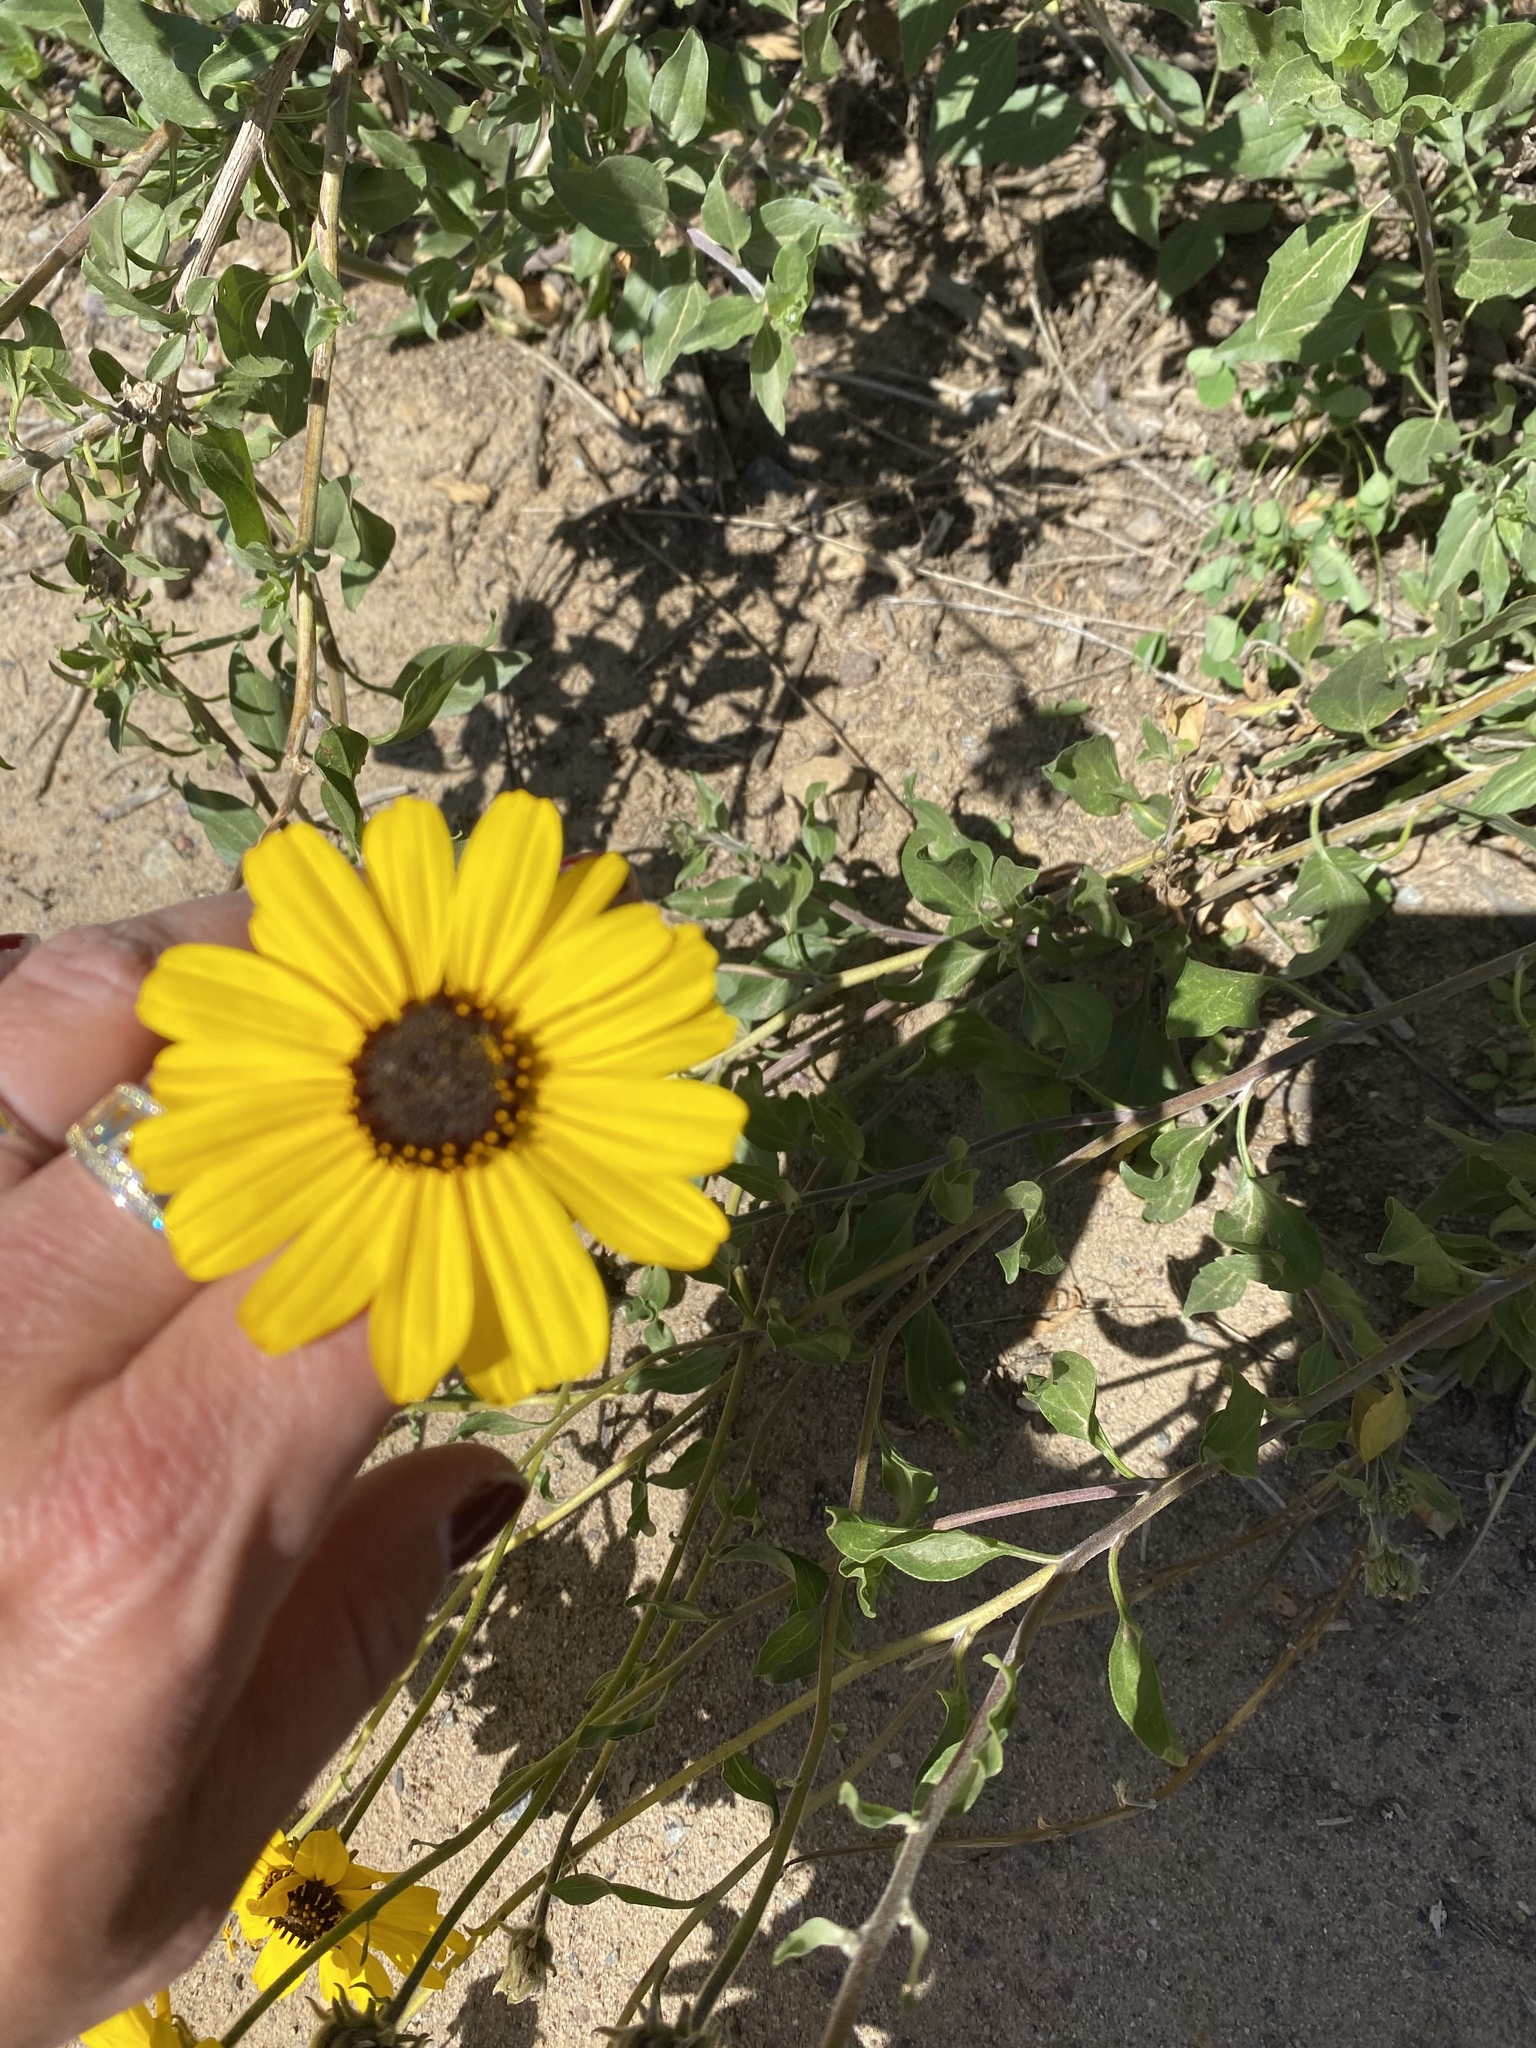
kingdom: Plantae
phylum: Tracheophyta
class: Magnoliopsida
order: Asterales
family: Asteraceae
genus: Encelia
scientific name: Encelia californica
